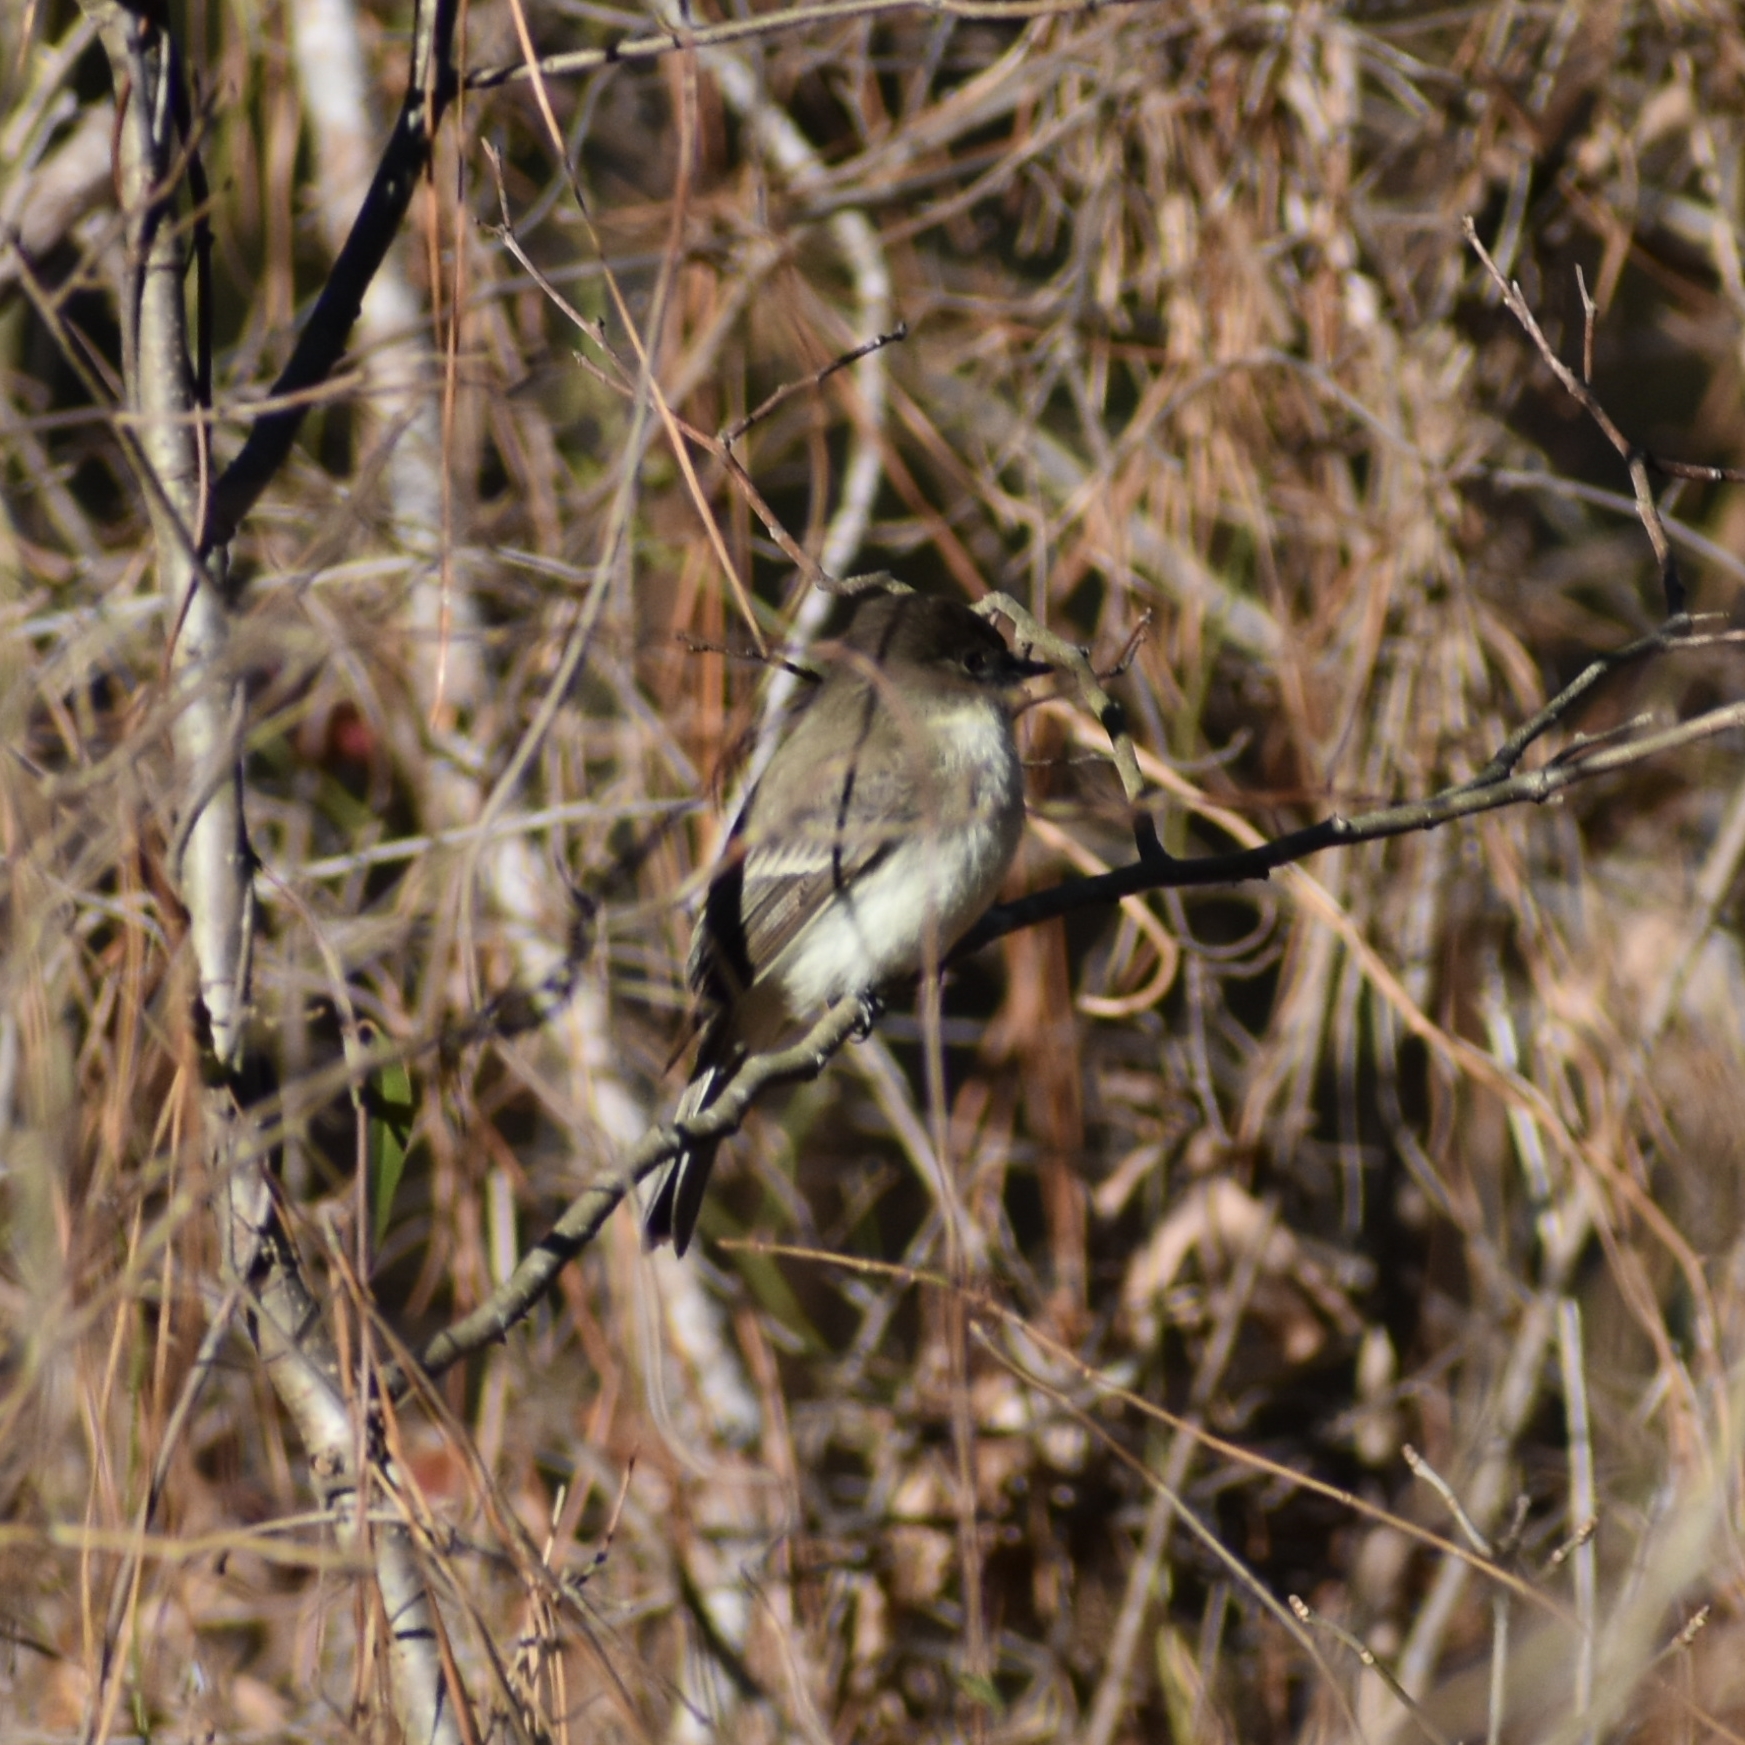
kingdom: Animalia
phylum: Chordata
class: Aves
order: Passeriformes
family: Tyrannidae
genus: Sayornis
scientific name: Sayornis phoebe
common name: Eastern phoebe
